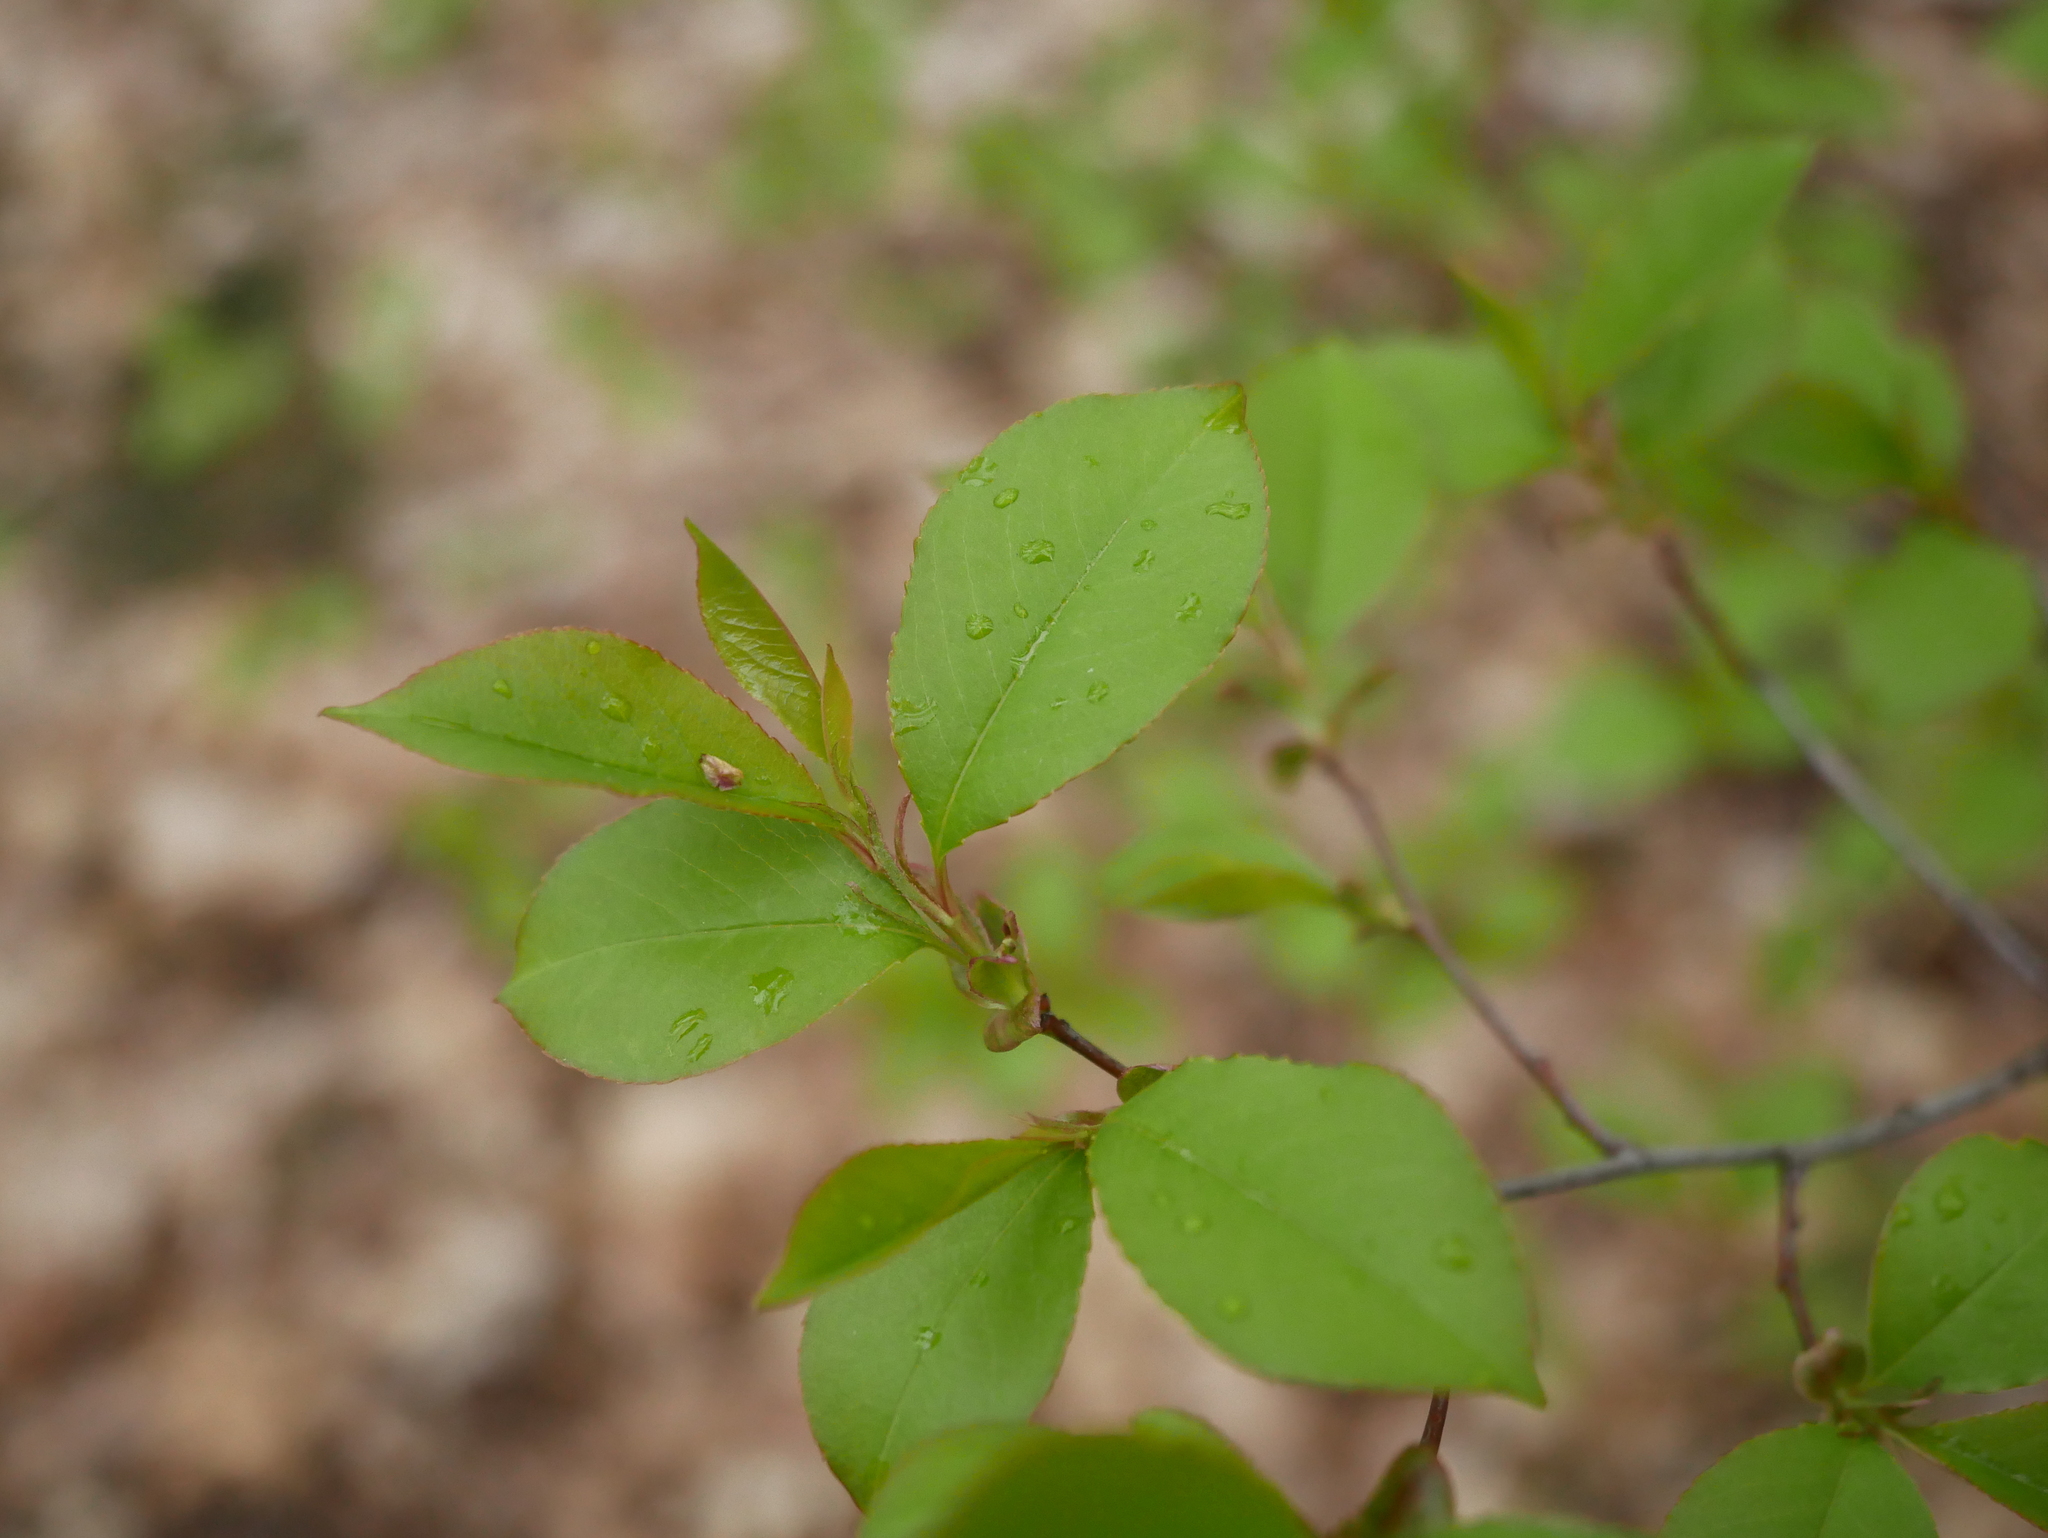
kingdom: Plantae
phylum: Tracheophyta
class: Magnoliopsida
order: Rosales
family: Rosaceae
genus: Prunus
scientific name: Prunus serotina
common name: Black cherry
